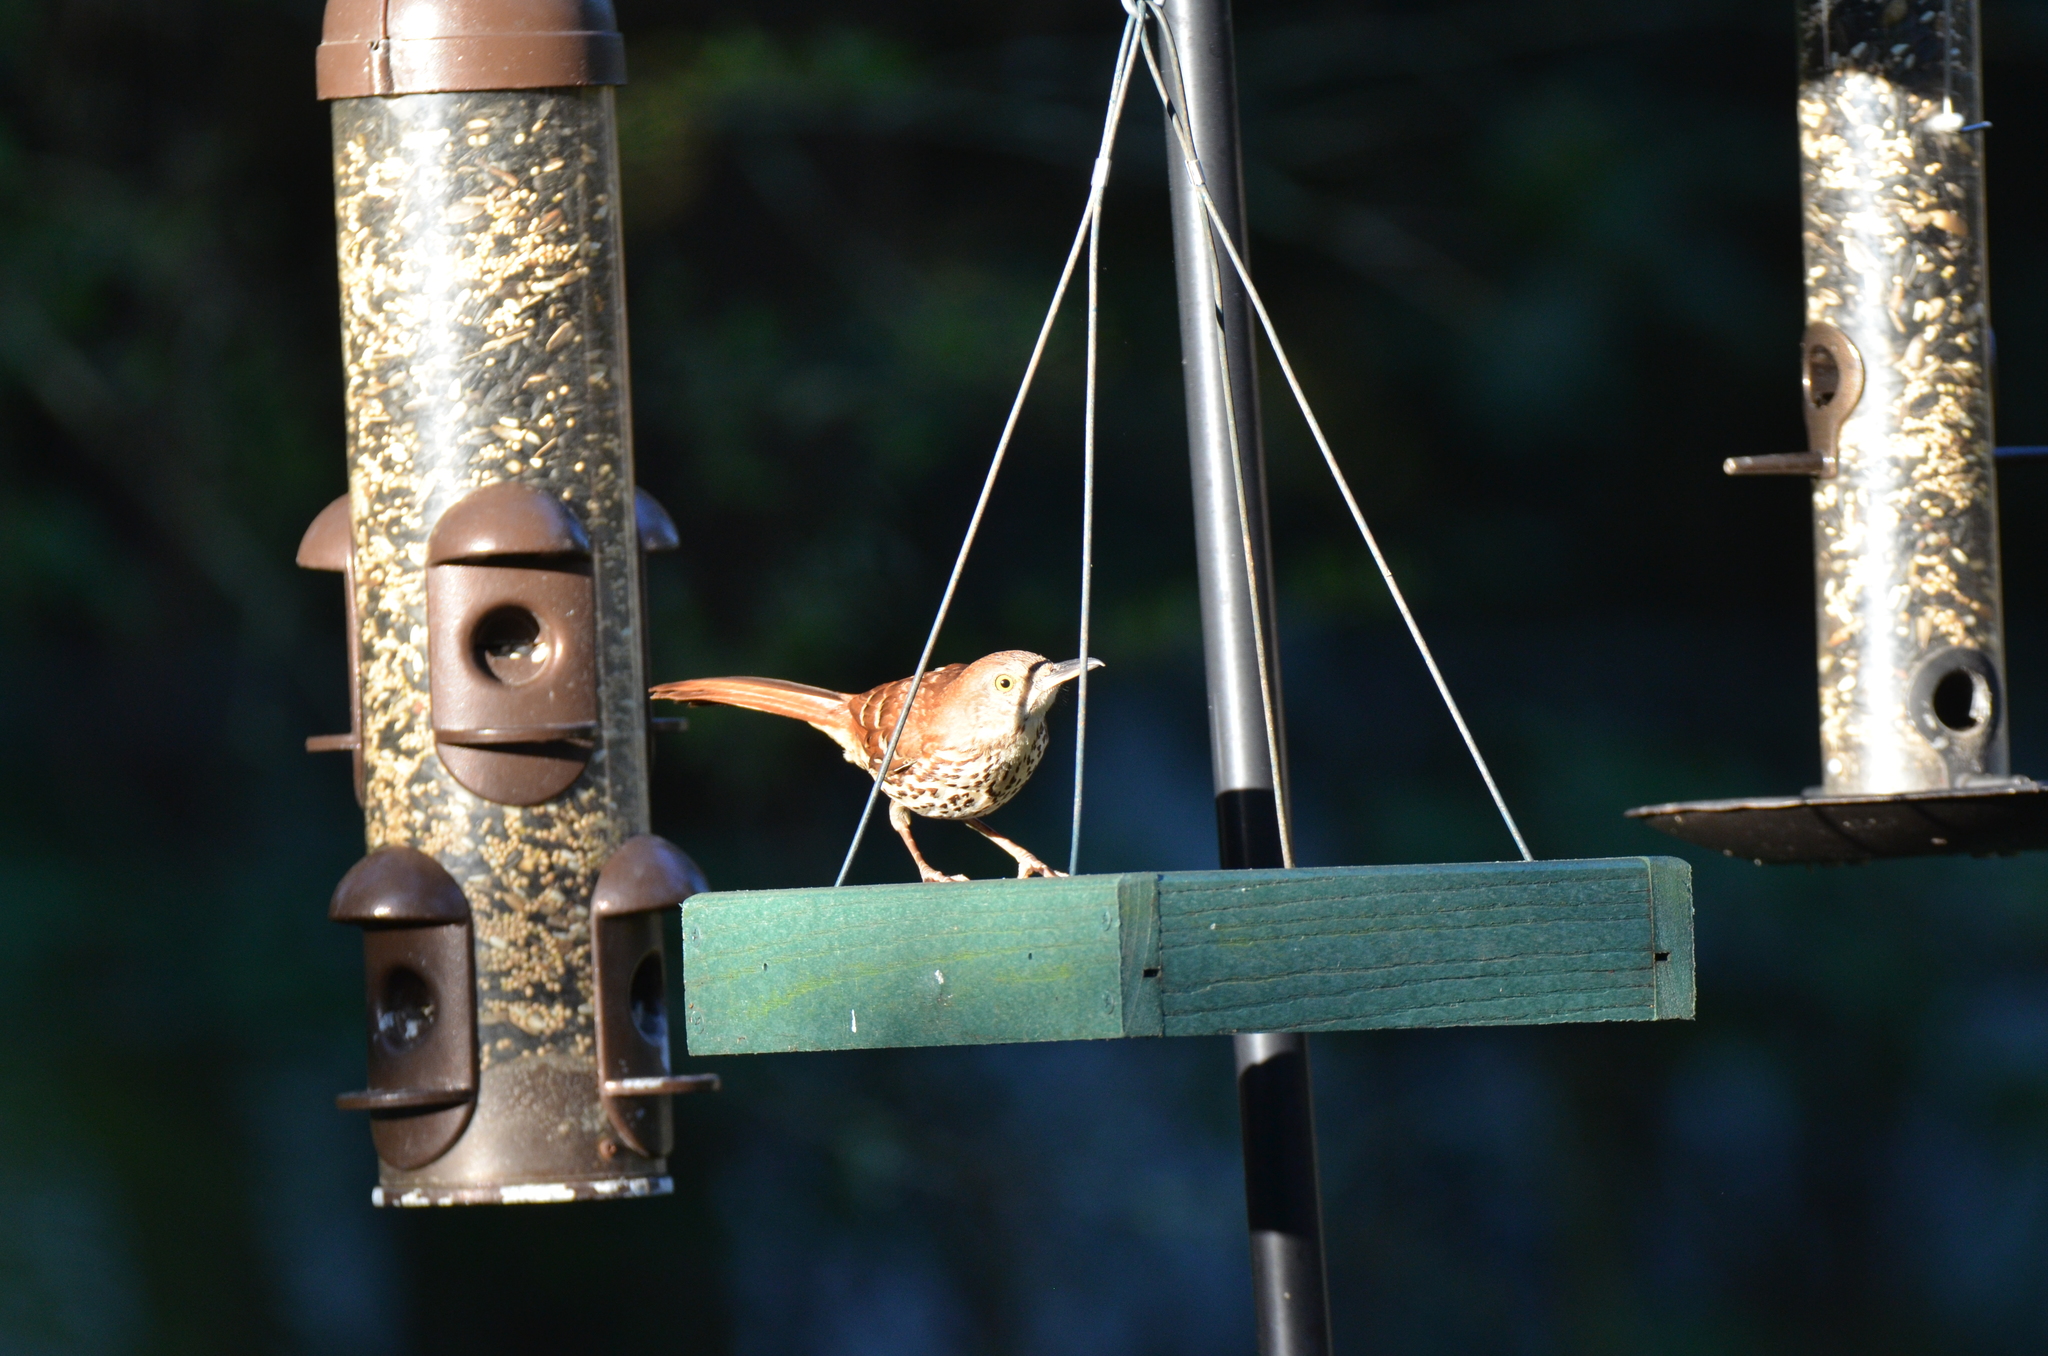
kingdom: Animalia
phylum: Chordata
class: Aves
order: Passeriformes
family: Mimidae
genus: Toxostoma
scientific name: Toxostoma rufum
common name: Brown thrasher
